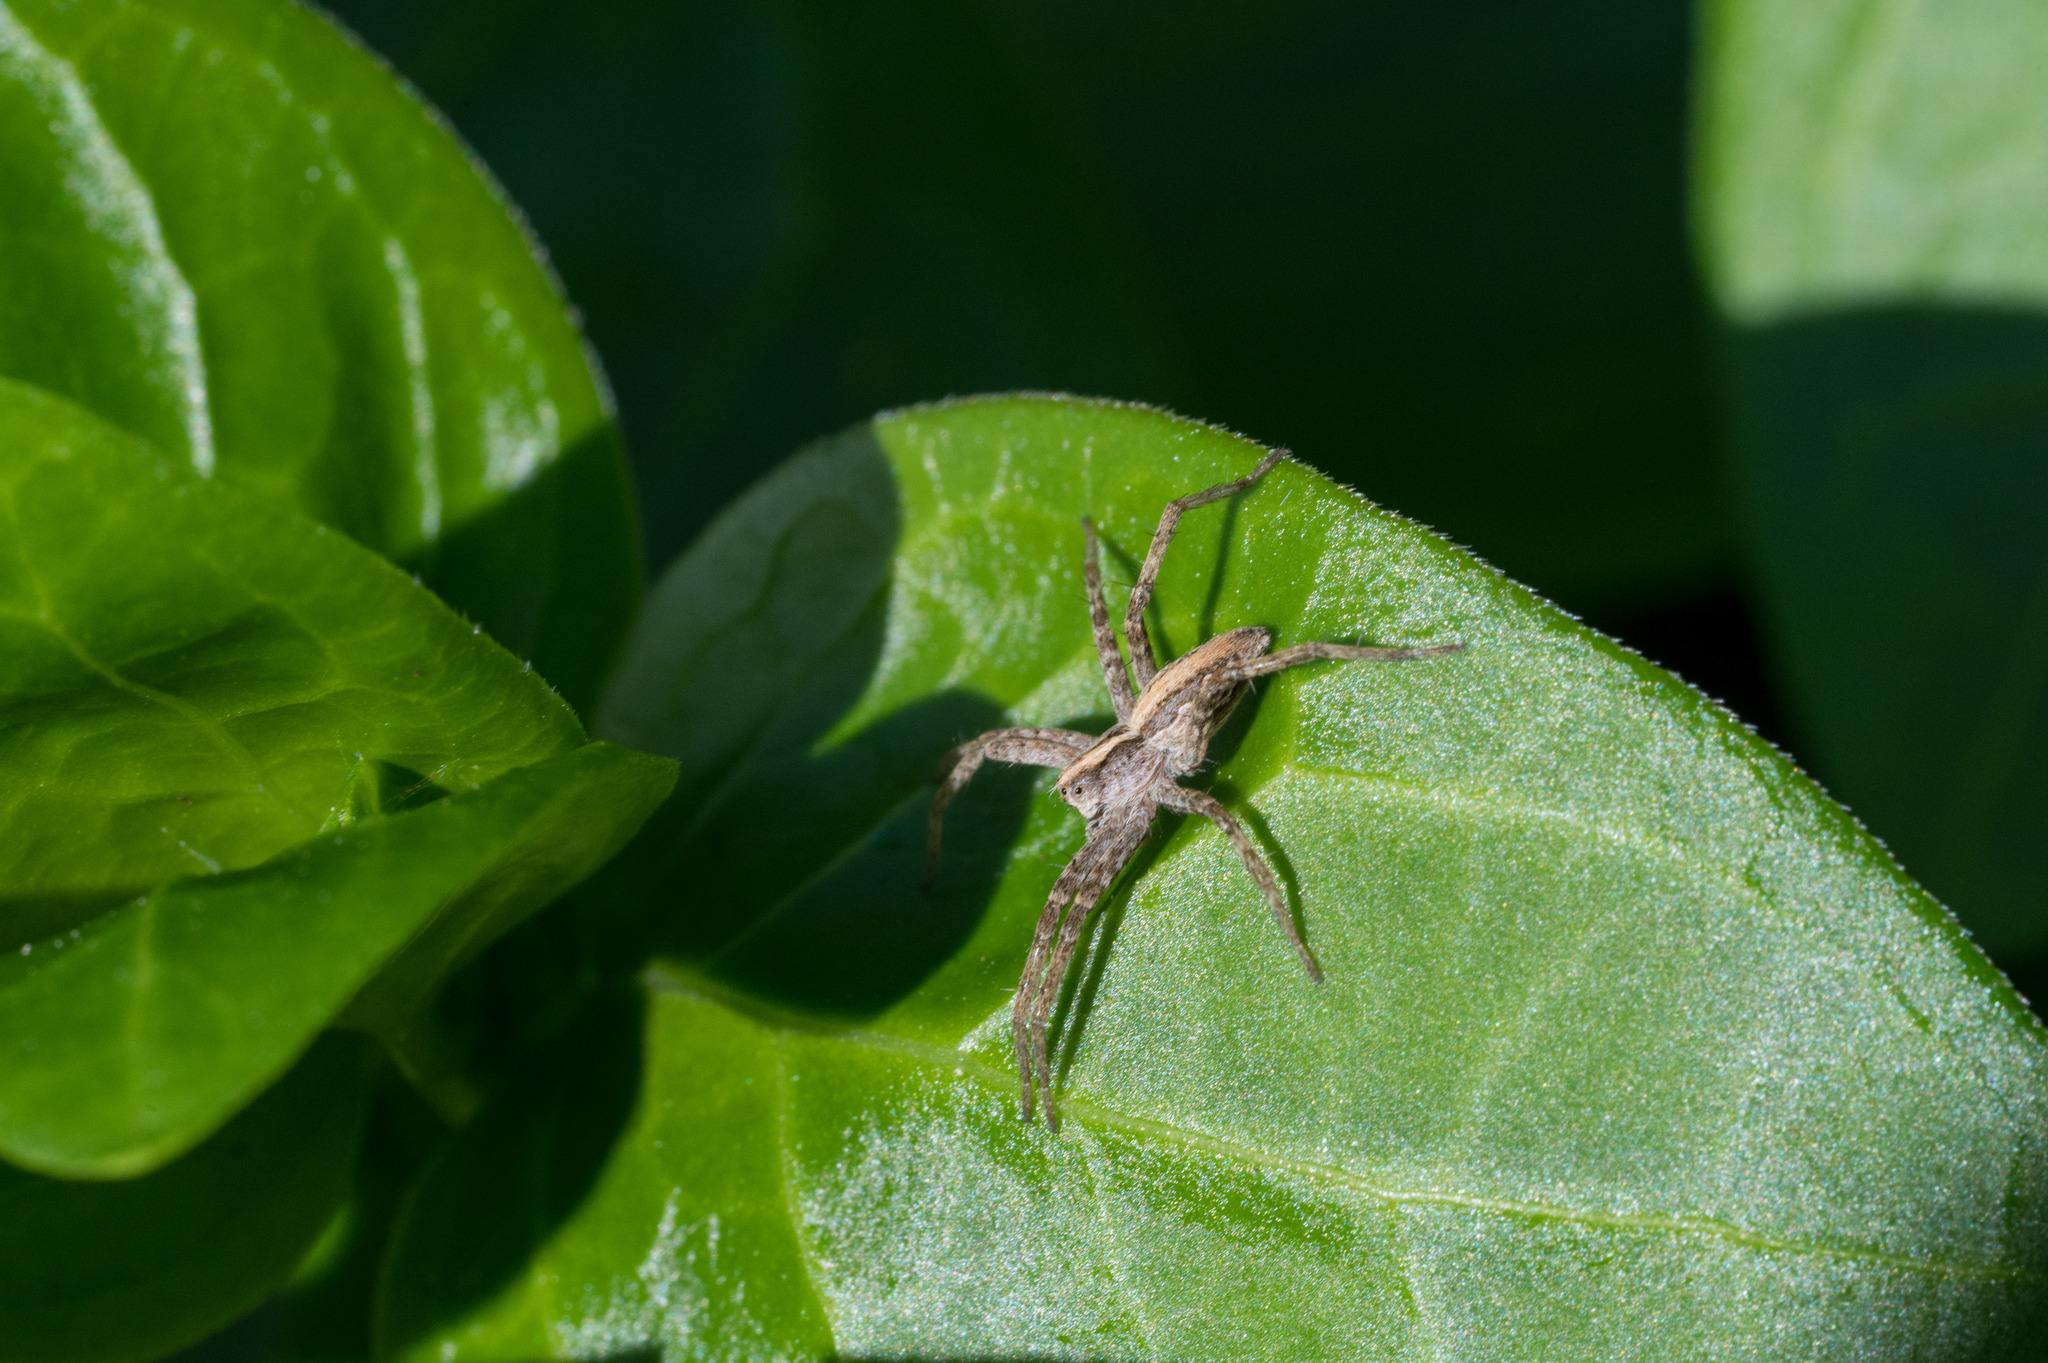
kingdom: Animalia
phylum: Arthropoda
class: Arachnida
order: Araneae
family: Pisauridae
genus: Pisaura
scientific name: Pisaura mirabilis
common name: Tent spider
